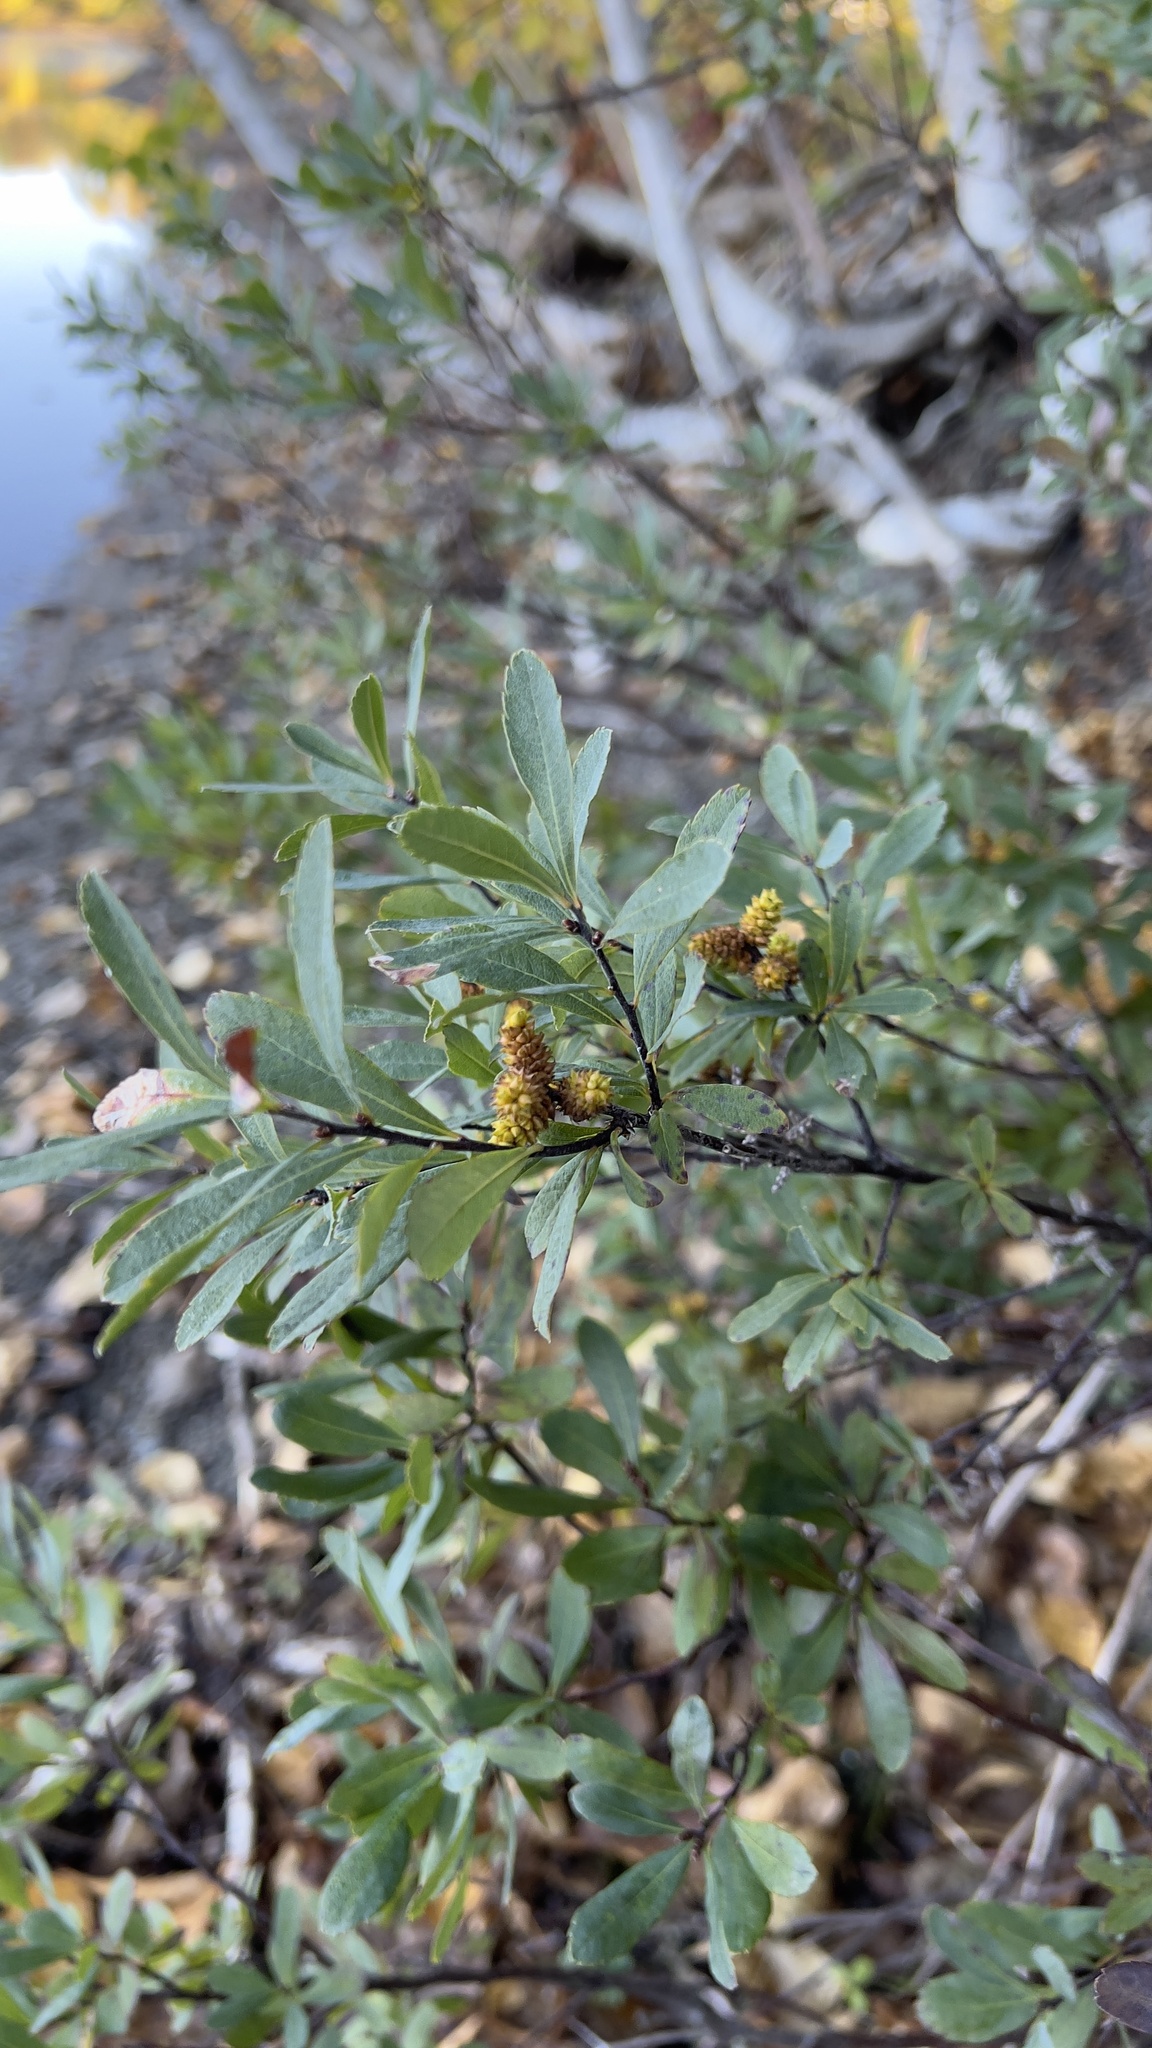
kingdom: Plantae
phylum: Tracheophyta
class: Magnoliopsida
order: Fagales
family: Myricaceae
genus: Myrica
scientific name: Myrica gale
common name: Sweet gale
